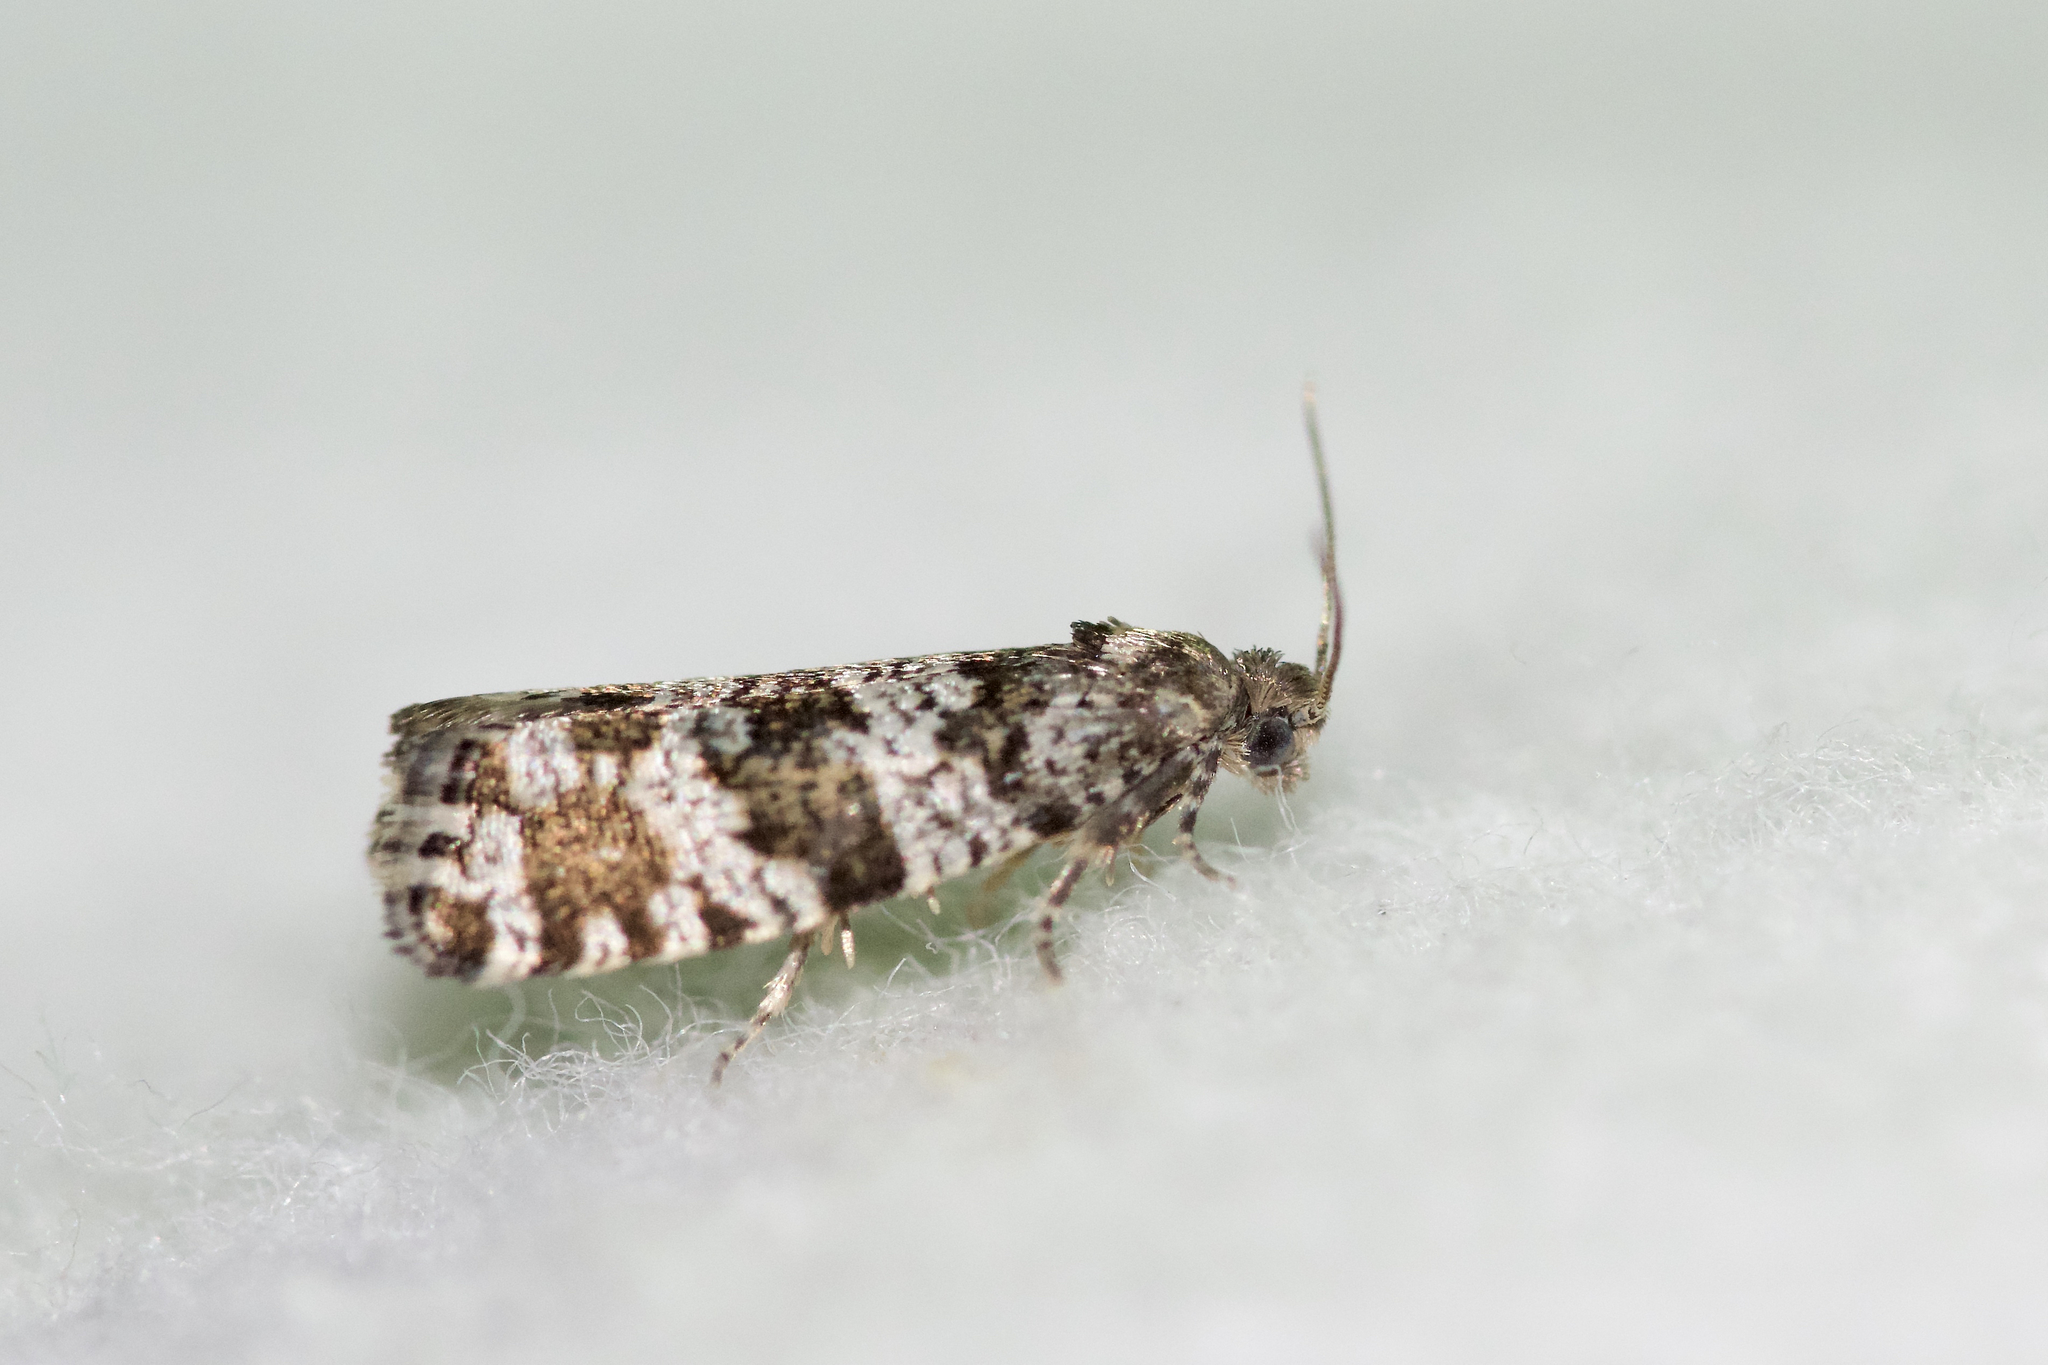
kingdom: Animalia
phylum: Arthropoda
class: Insecta
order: Lepidoptera
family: Tortricidae
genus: Taniva
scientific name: Taniva albolineana
